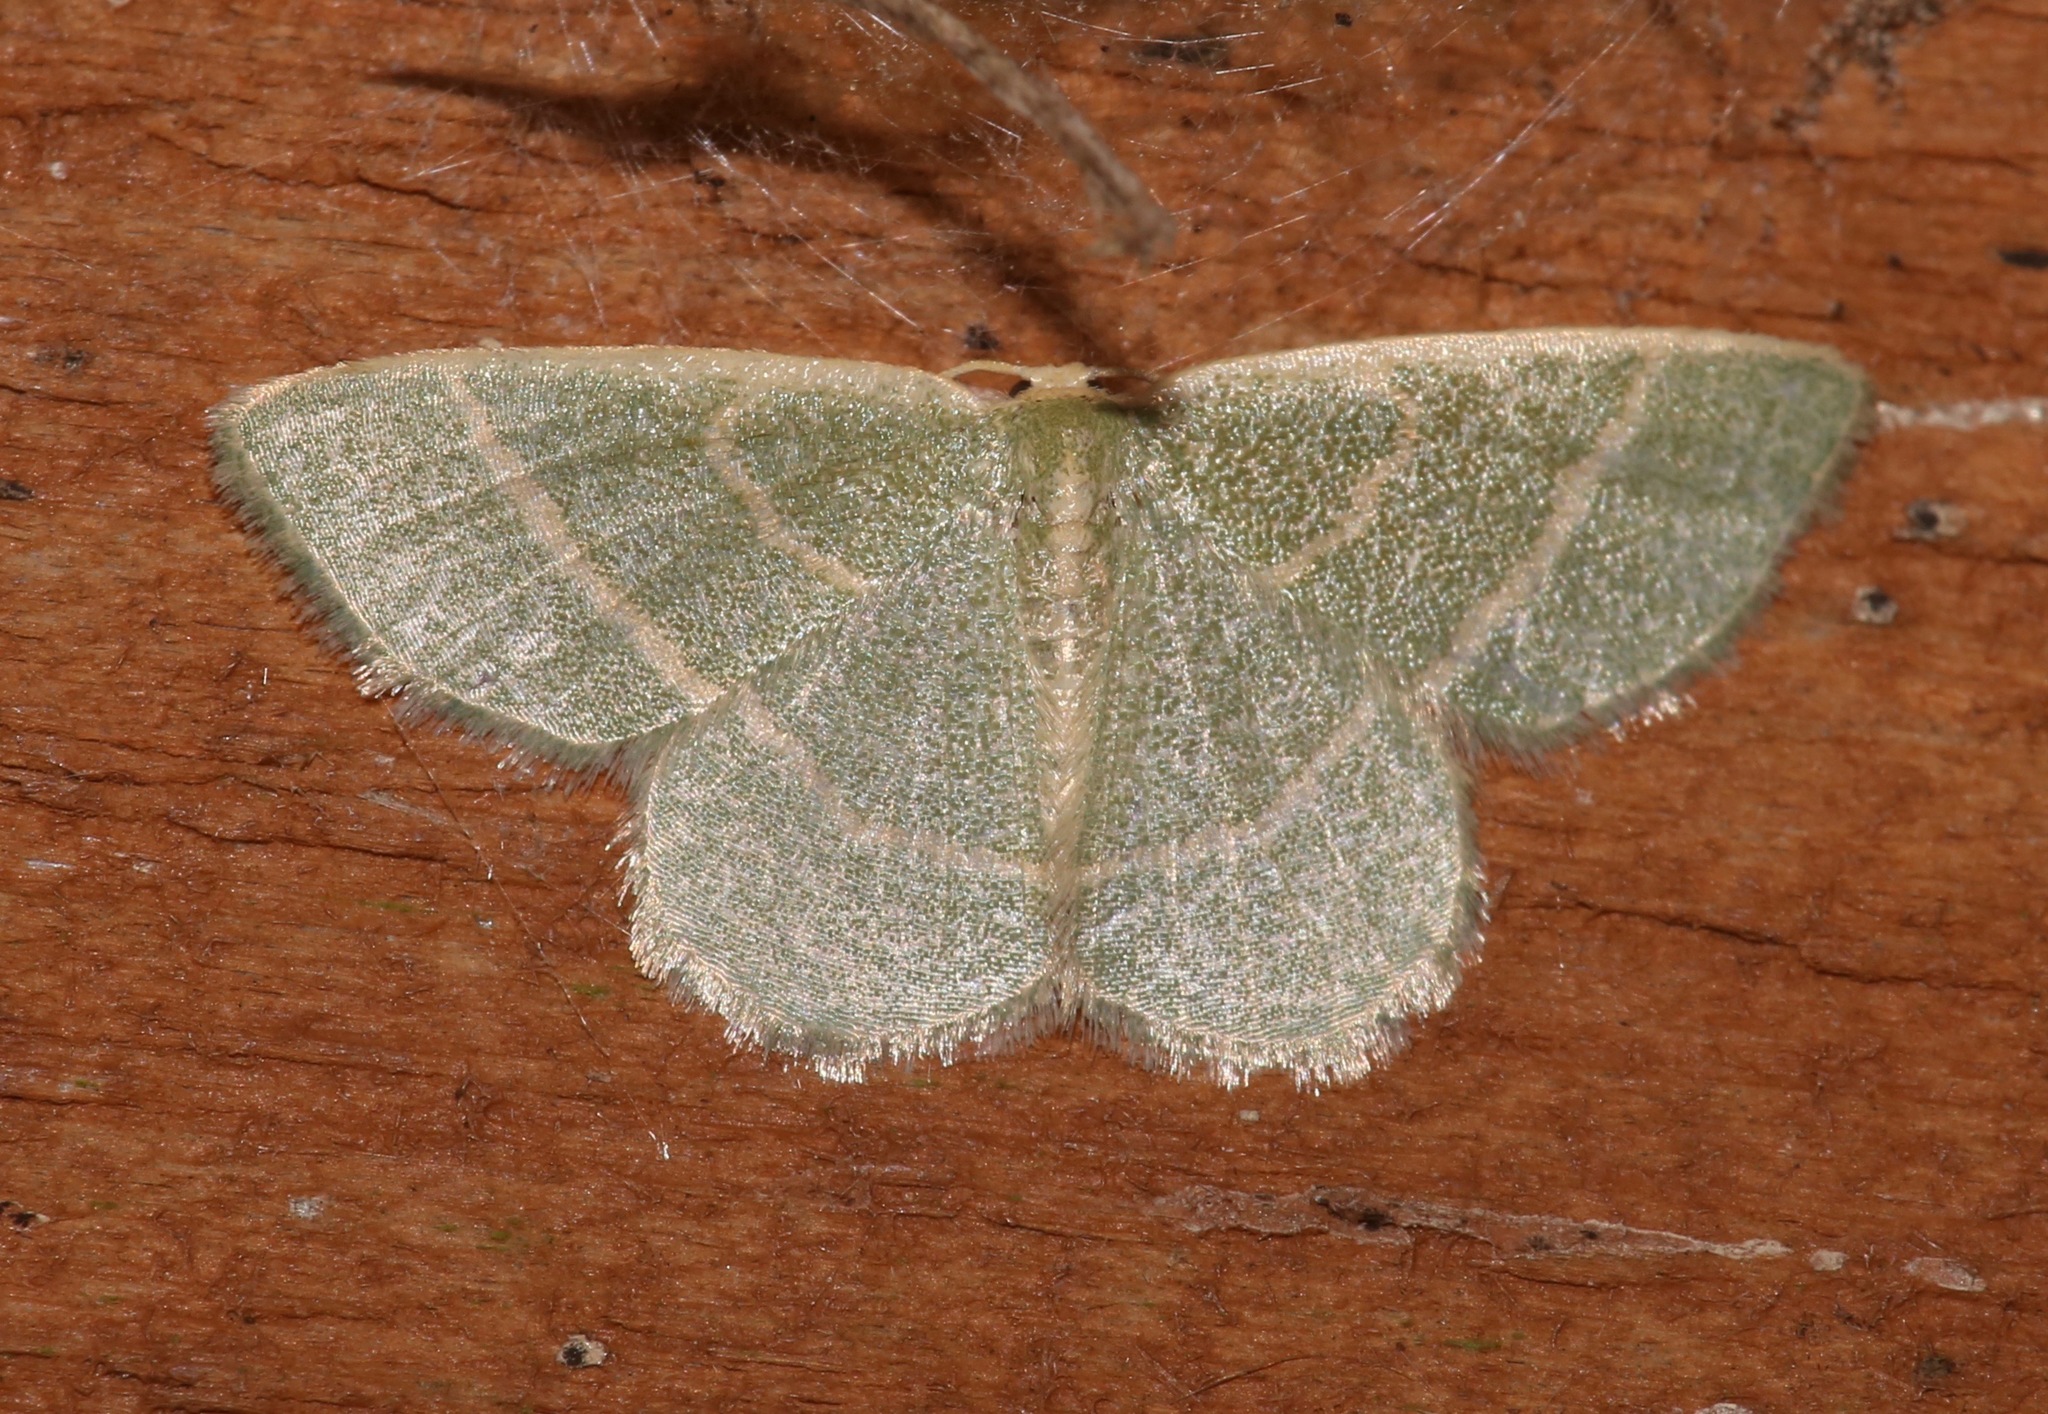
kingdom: Animalia
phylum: Arthropoda
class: Insecta
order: Lepidoptera
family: Geometridae
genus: Chlorochlamys
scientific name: Chlorochlamys chloroleucaria
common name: Blackberry looper
